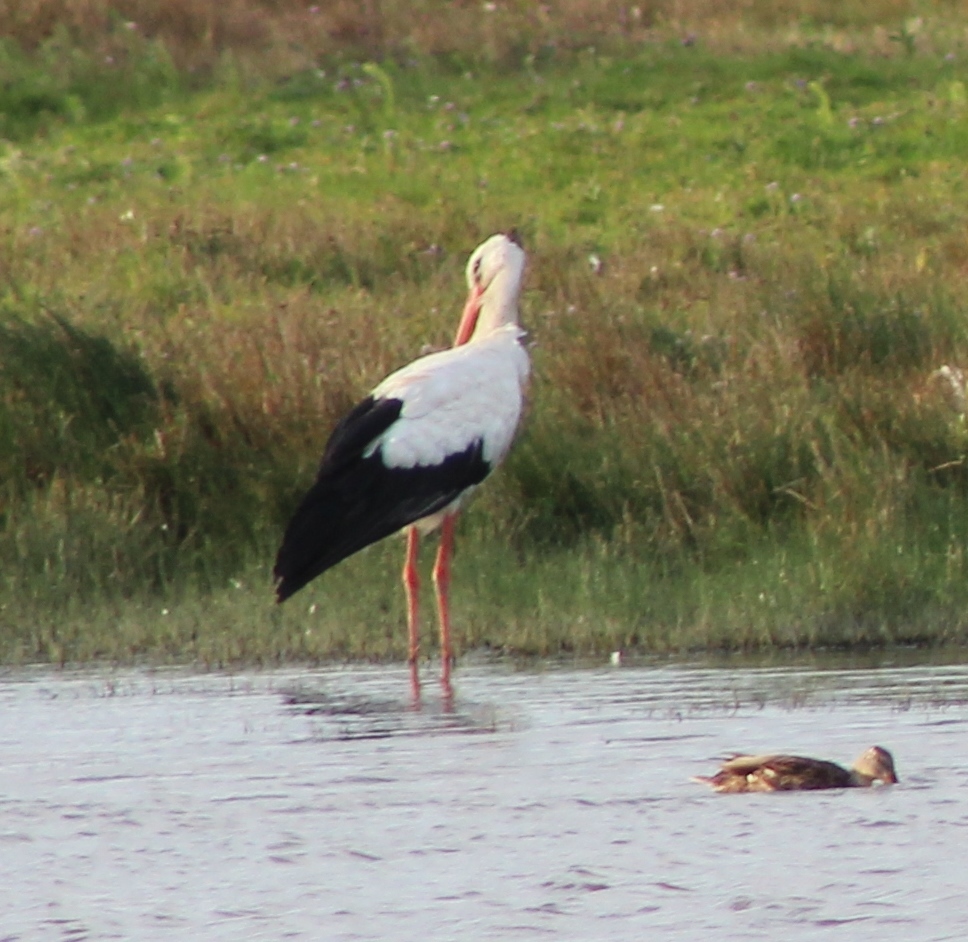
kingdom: Animalia
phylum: Chordata
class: Aves
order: Ciconiiformes
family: Ciconiidae
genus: Ciconia
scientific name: Ciconia ciconia
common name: White stork
